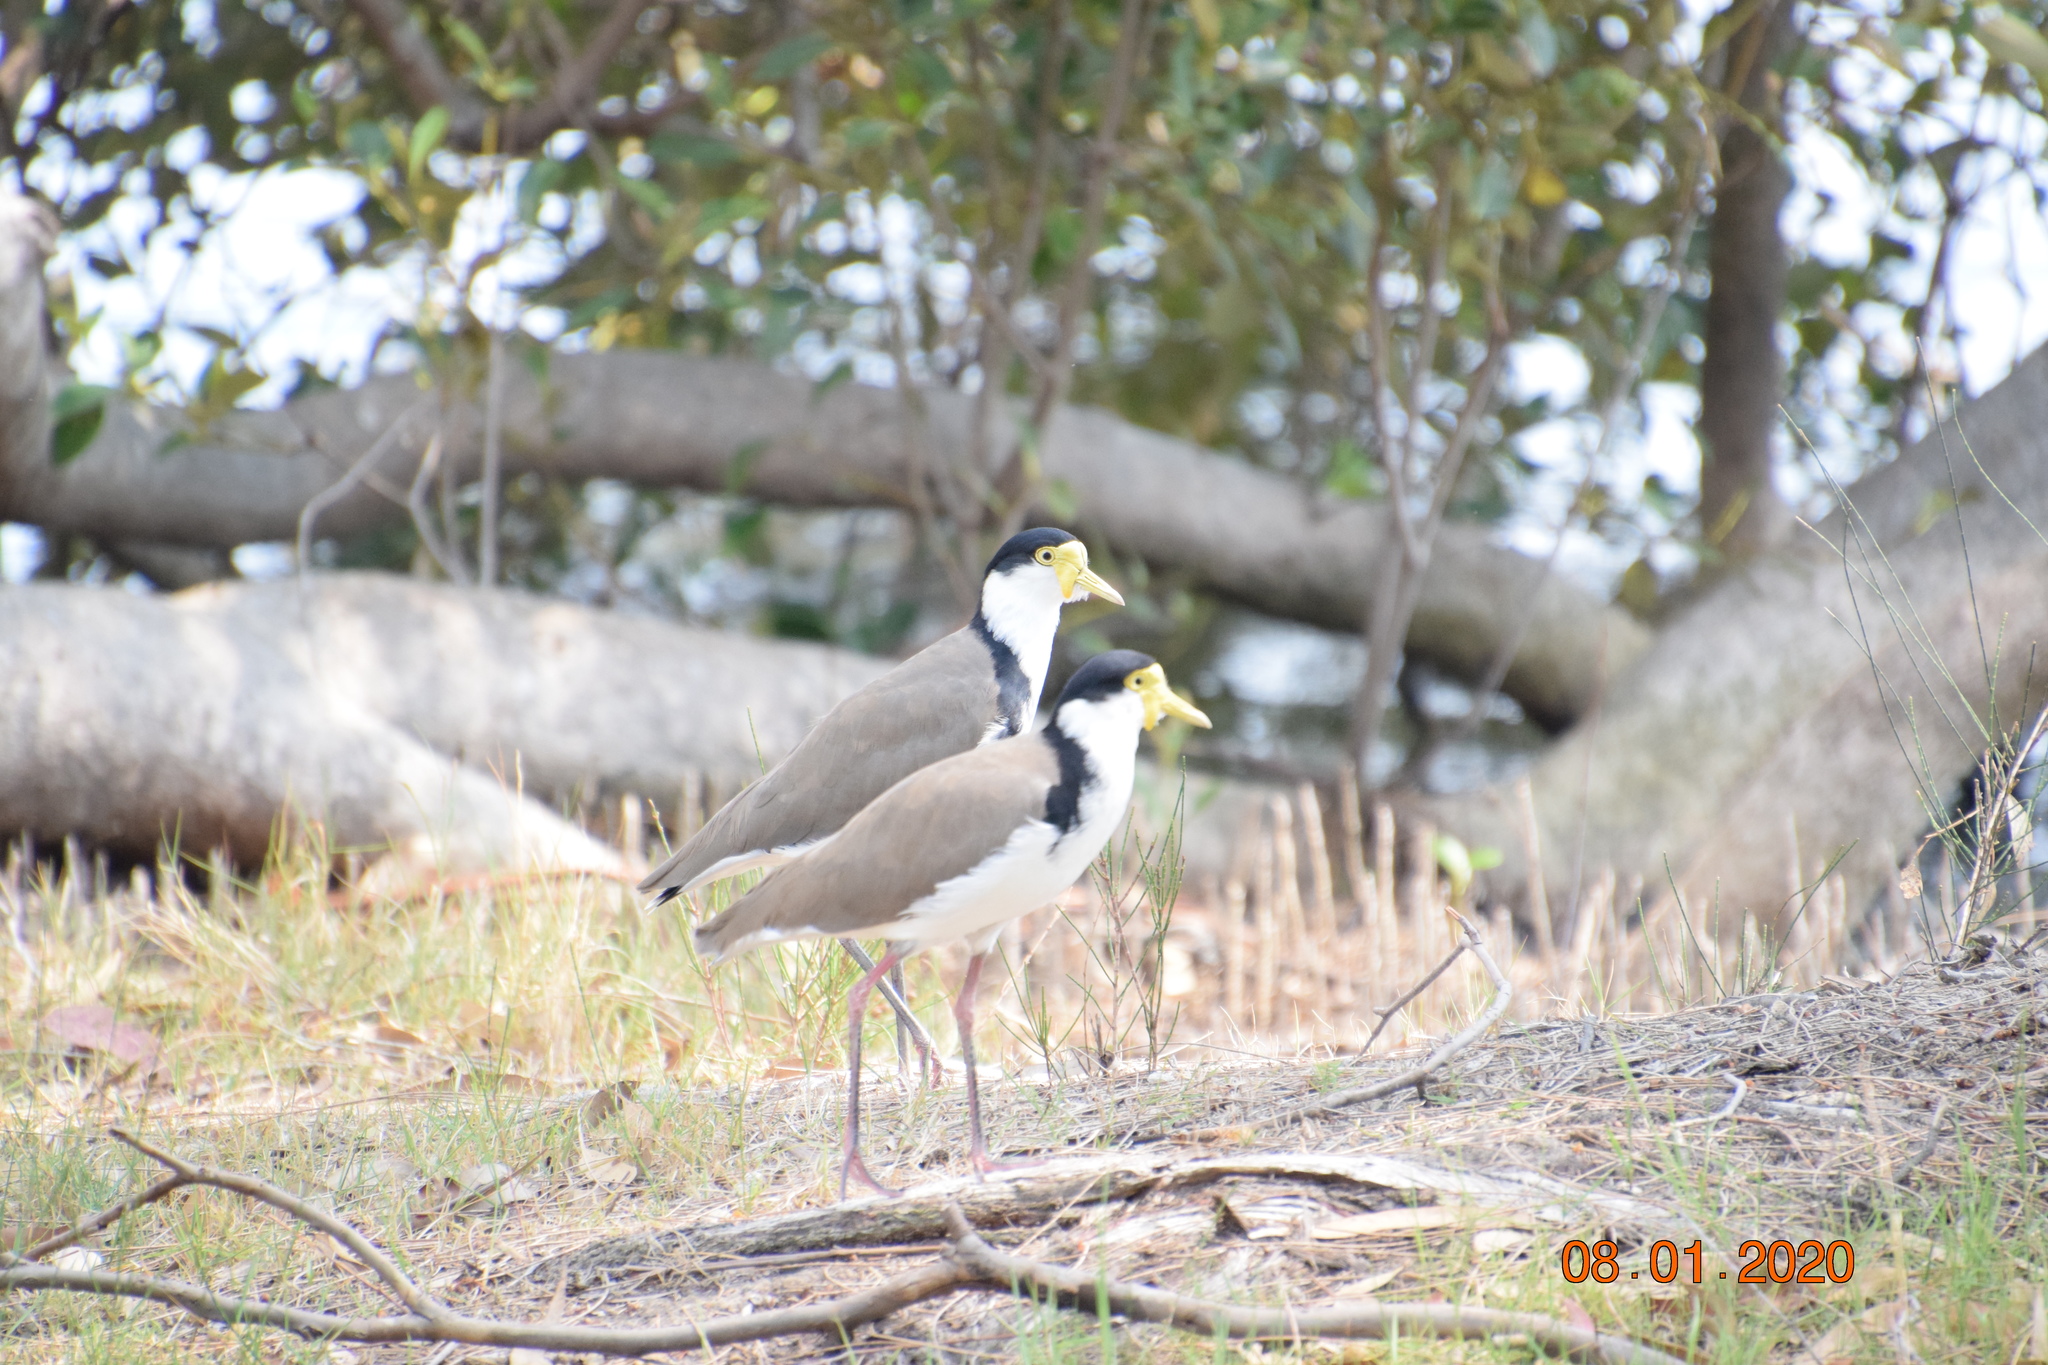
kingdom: Animalia
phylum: Chordata
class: Aves
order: Charadriiformes
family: Charadriidae
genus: Vanellus
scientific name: Vanellus miles
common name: Masked lapwing
